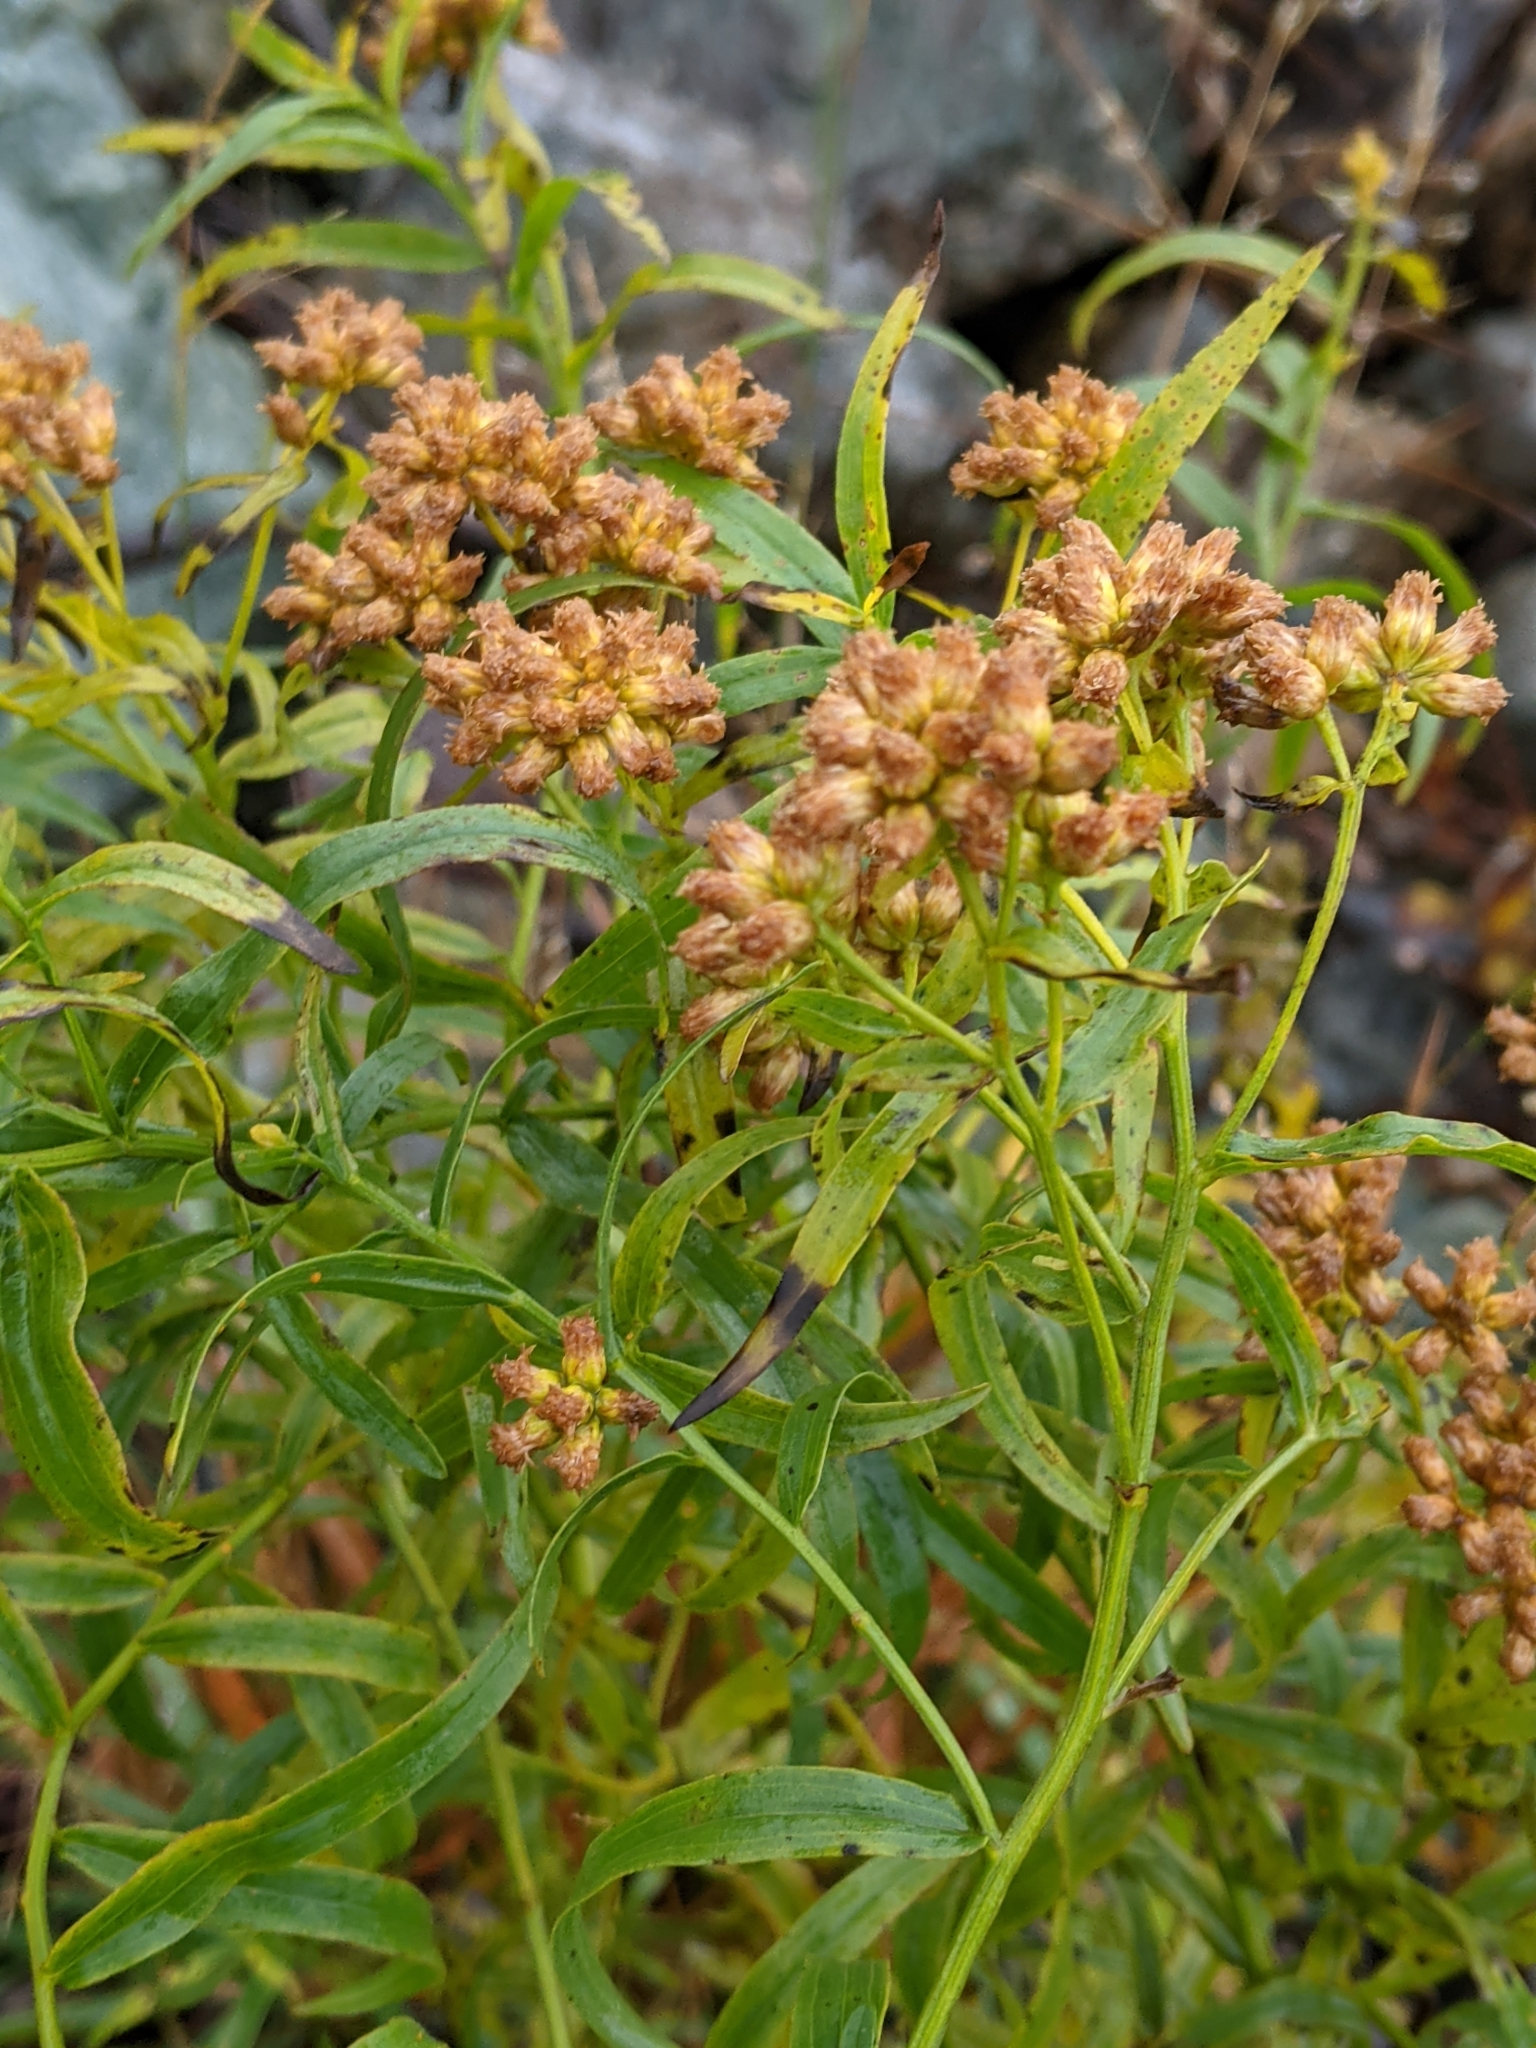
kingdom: Plantae
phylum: Tracheophyta
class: Magnoliopsida
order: Asterales
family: Asteraceae
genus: Euthamia
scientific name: Euthamia graminifolia
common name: Common goldentop
